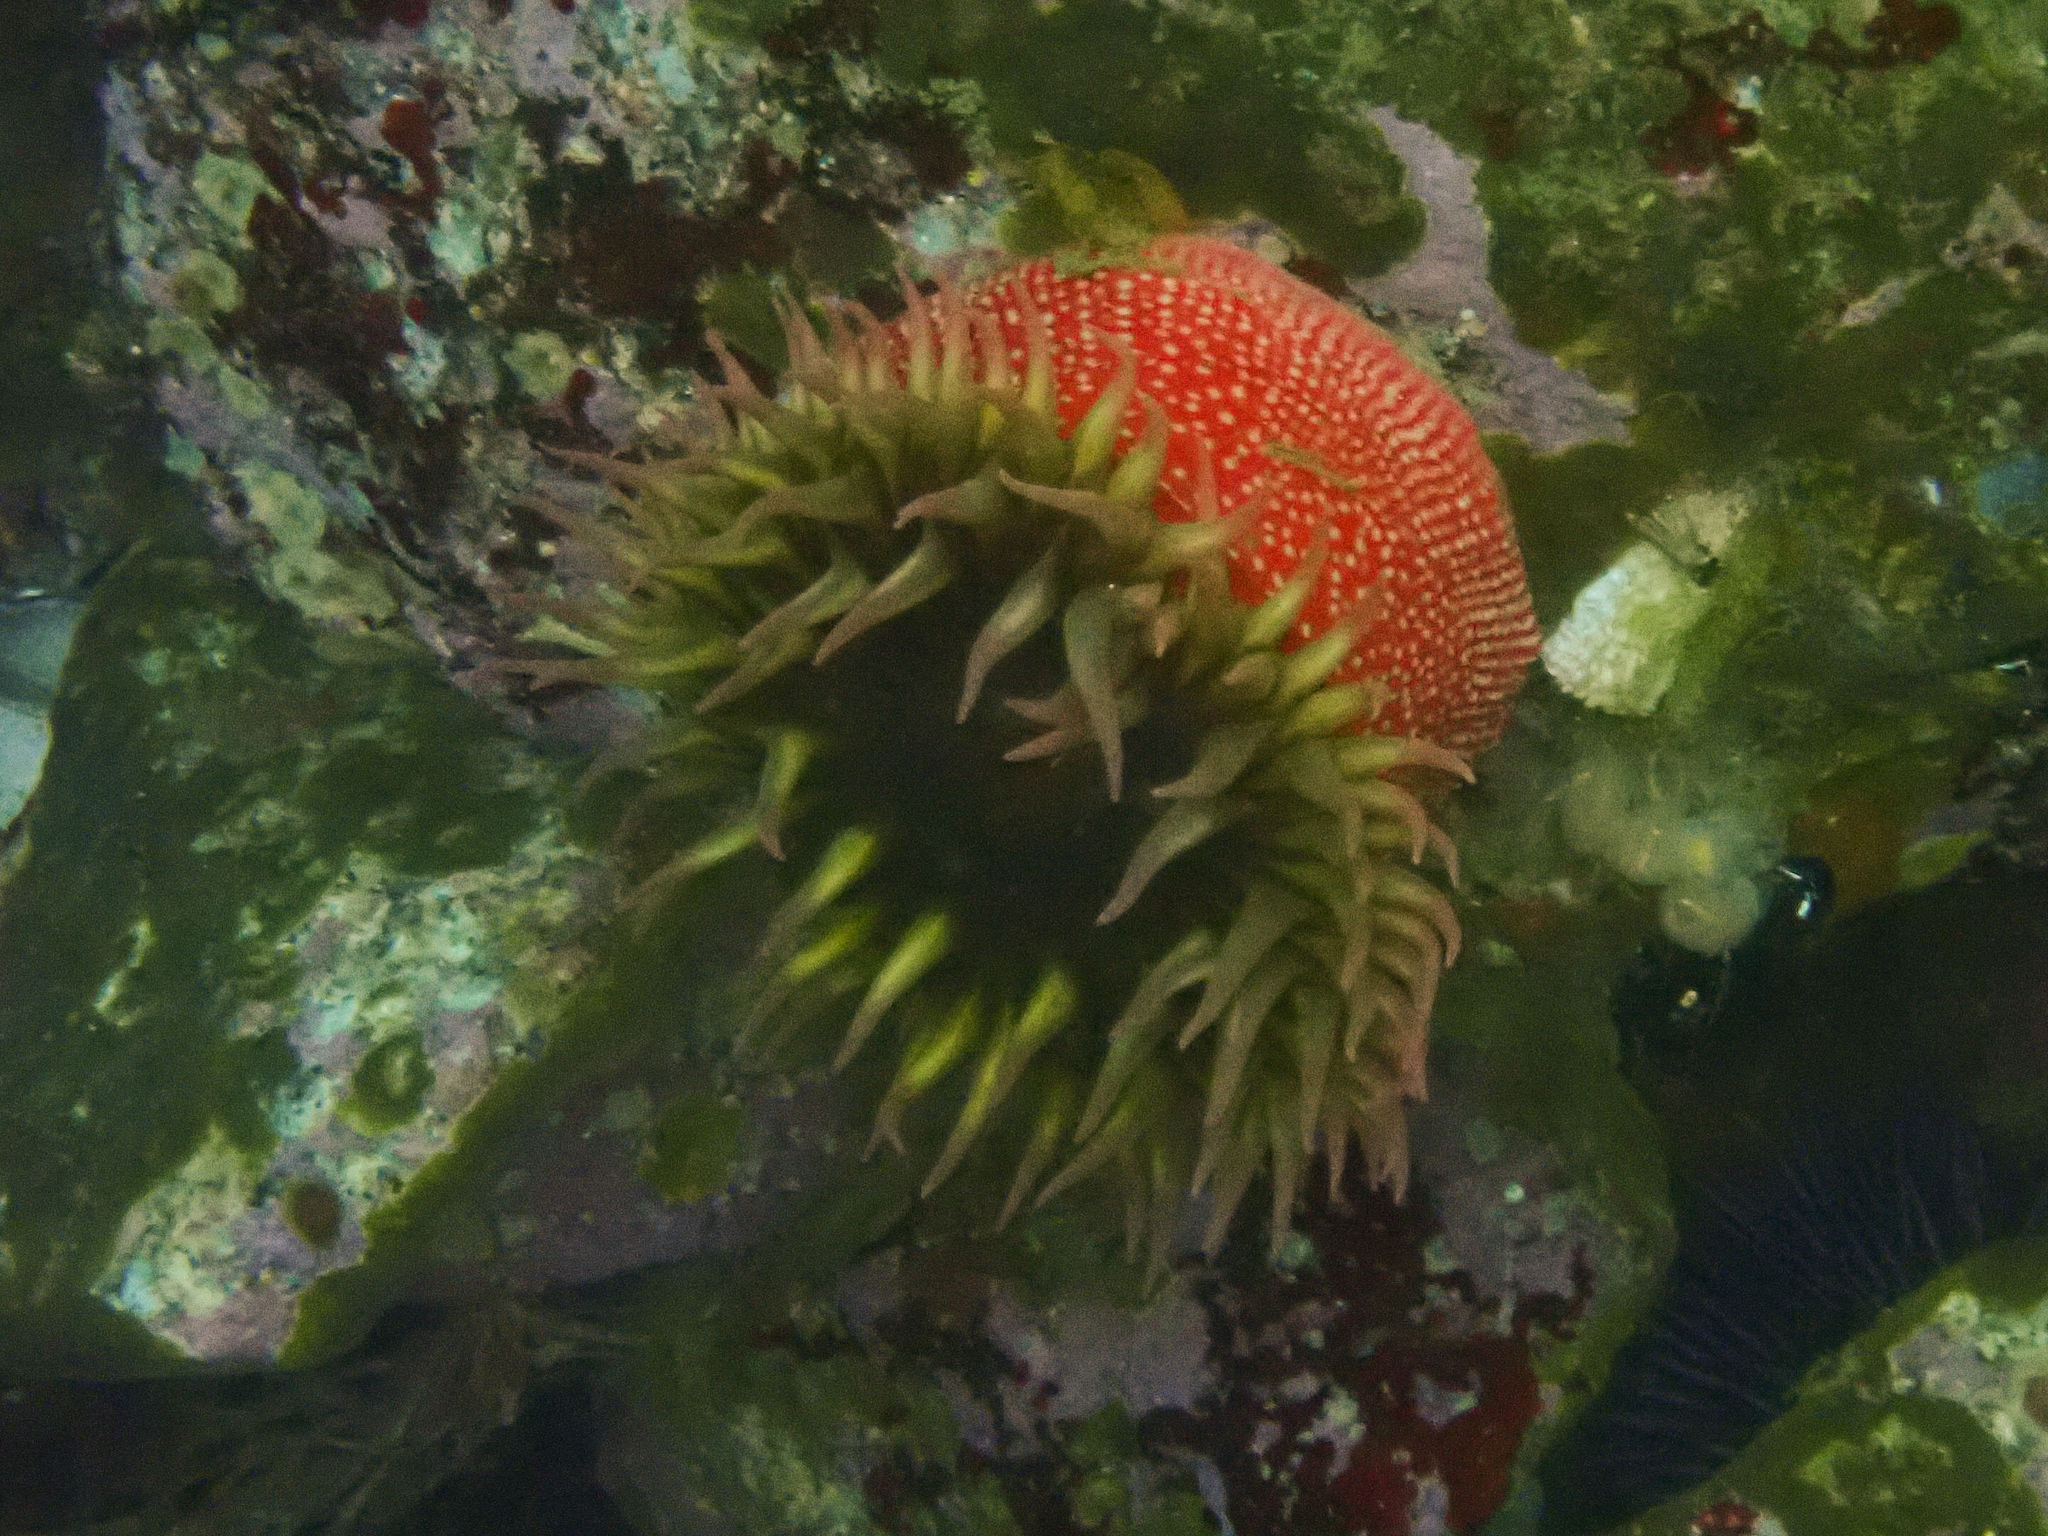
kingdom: Animalia
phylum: Cnidaria
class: Anthozoa
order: Actiniaria
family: Actiniidae
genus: Cribrinopsis
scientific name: Cribrinopsis albopunctata
